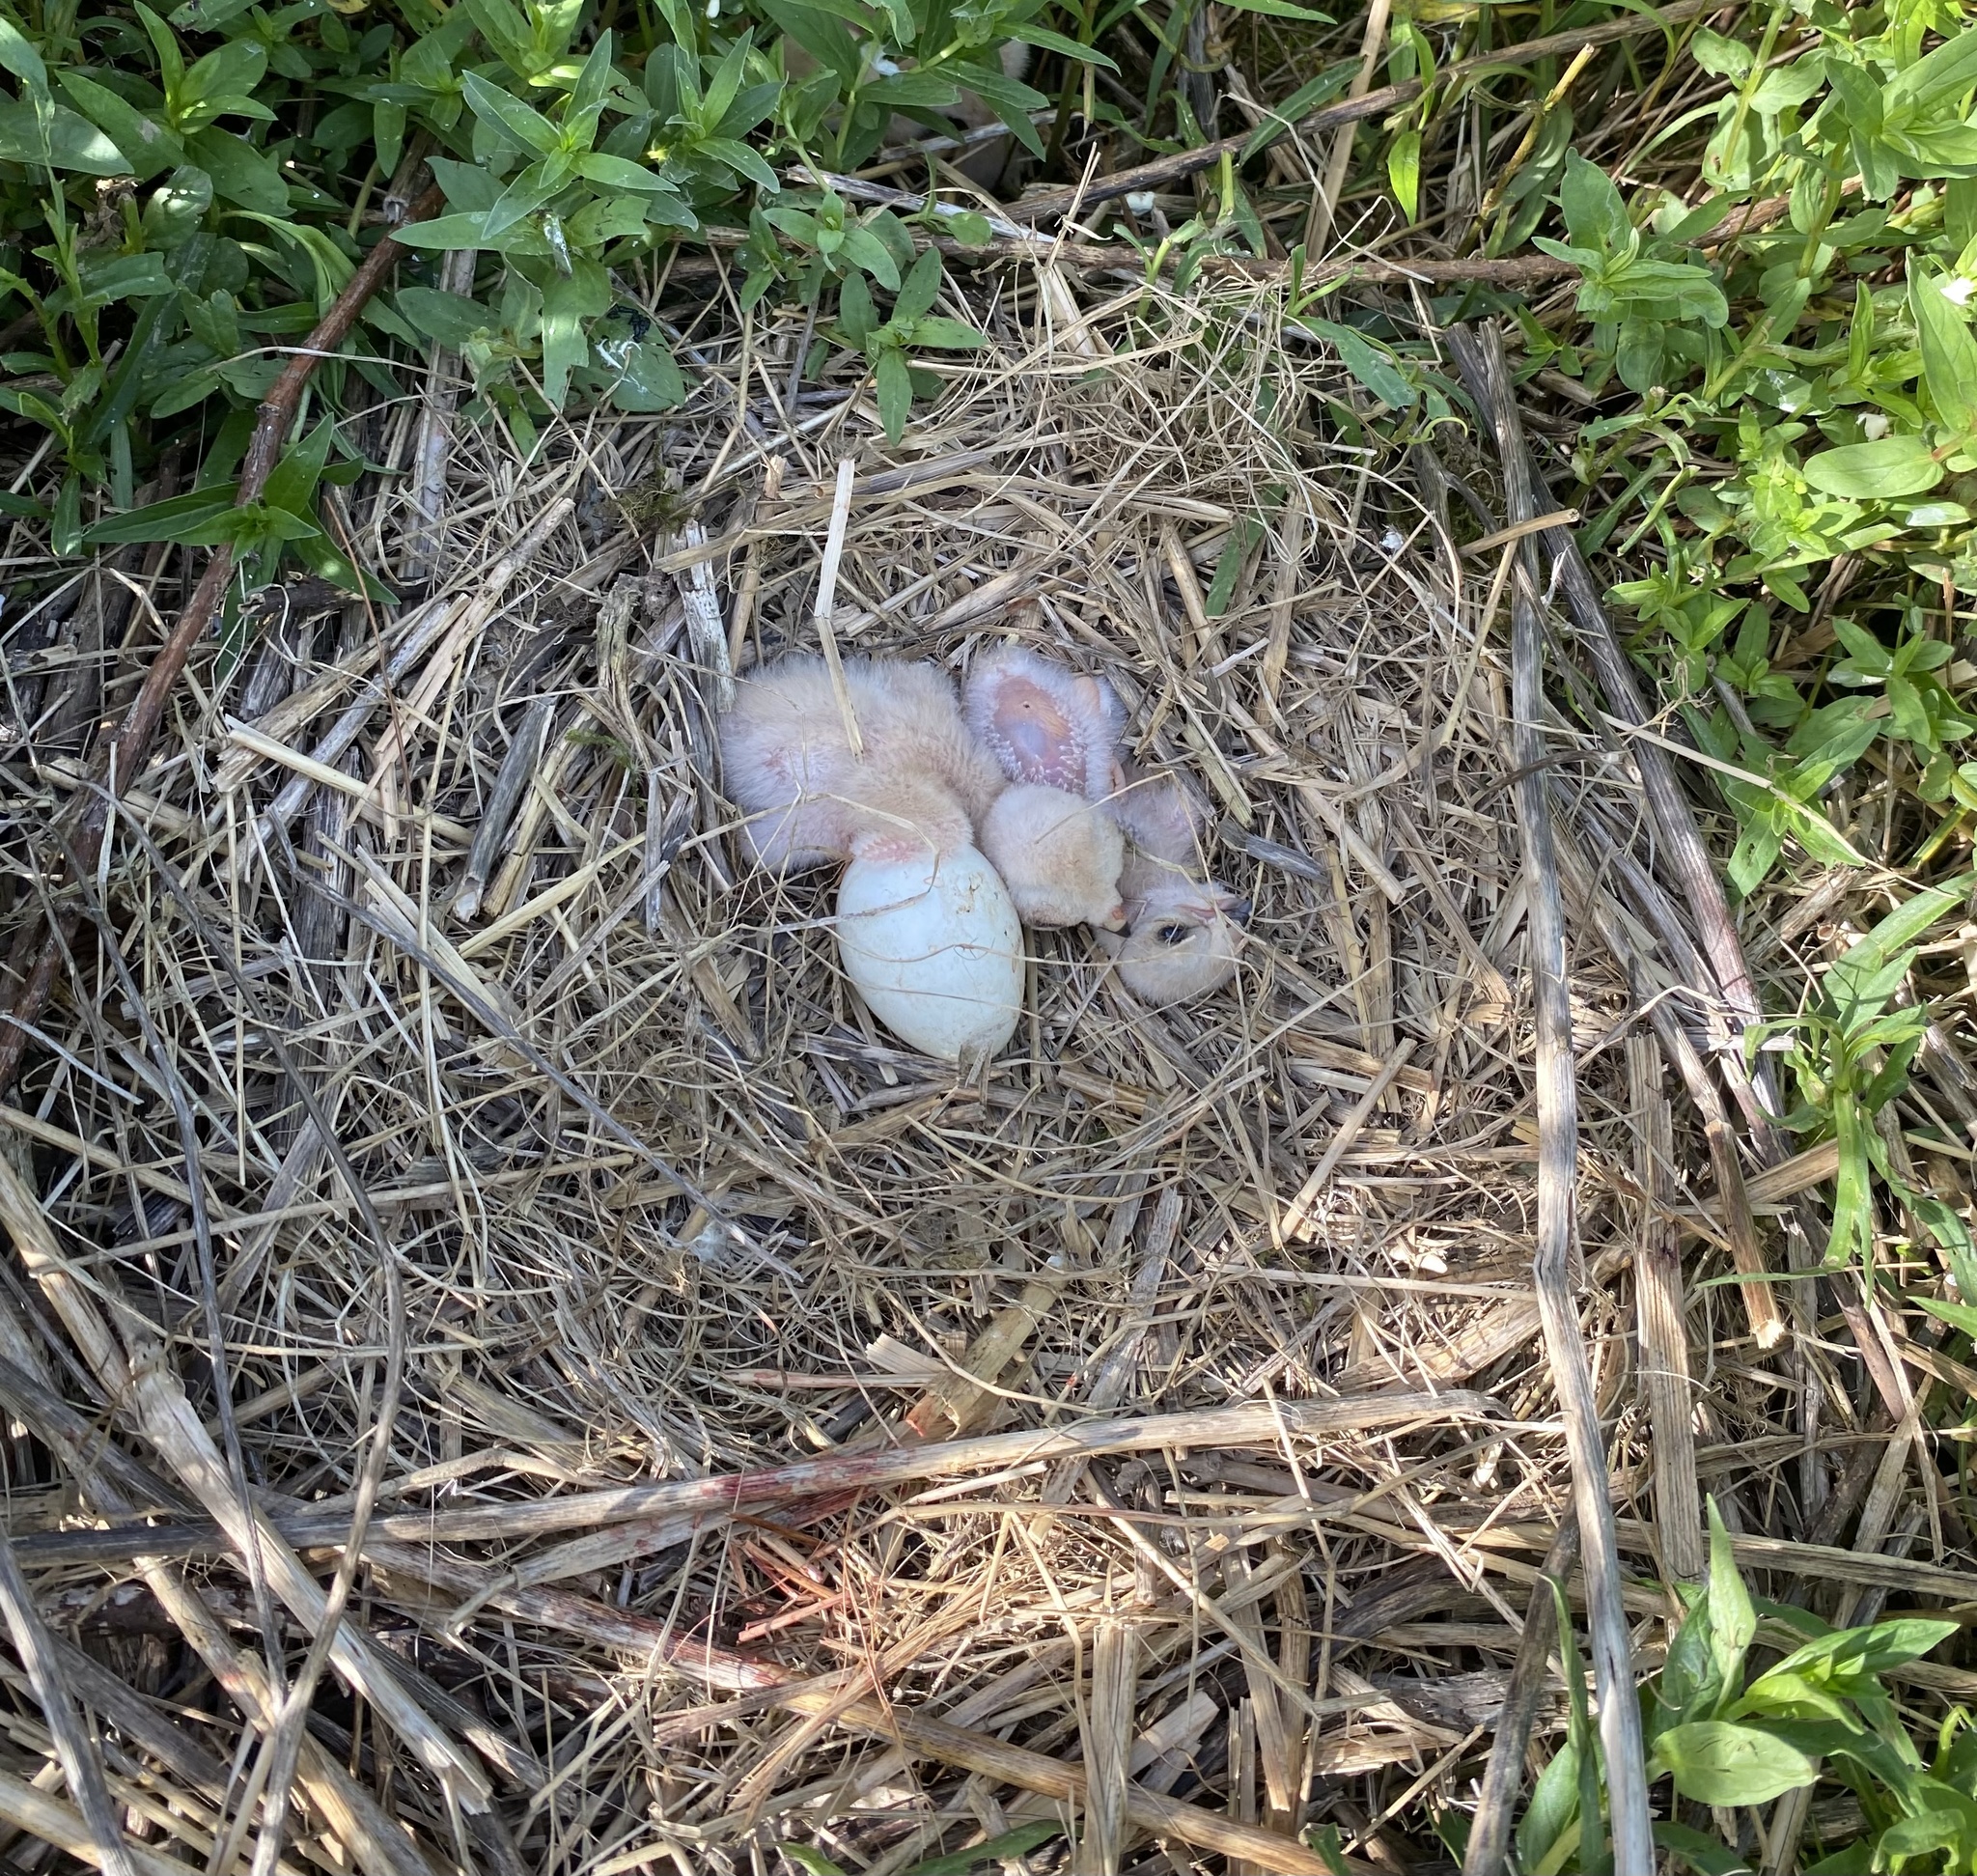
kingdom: Animalia
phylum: Chordata
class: Aves
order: Accipitriformes
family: Accipitridae
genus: Circus
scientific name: Circus cyaneus
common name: Hen harrier
